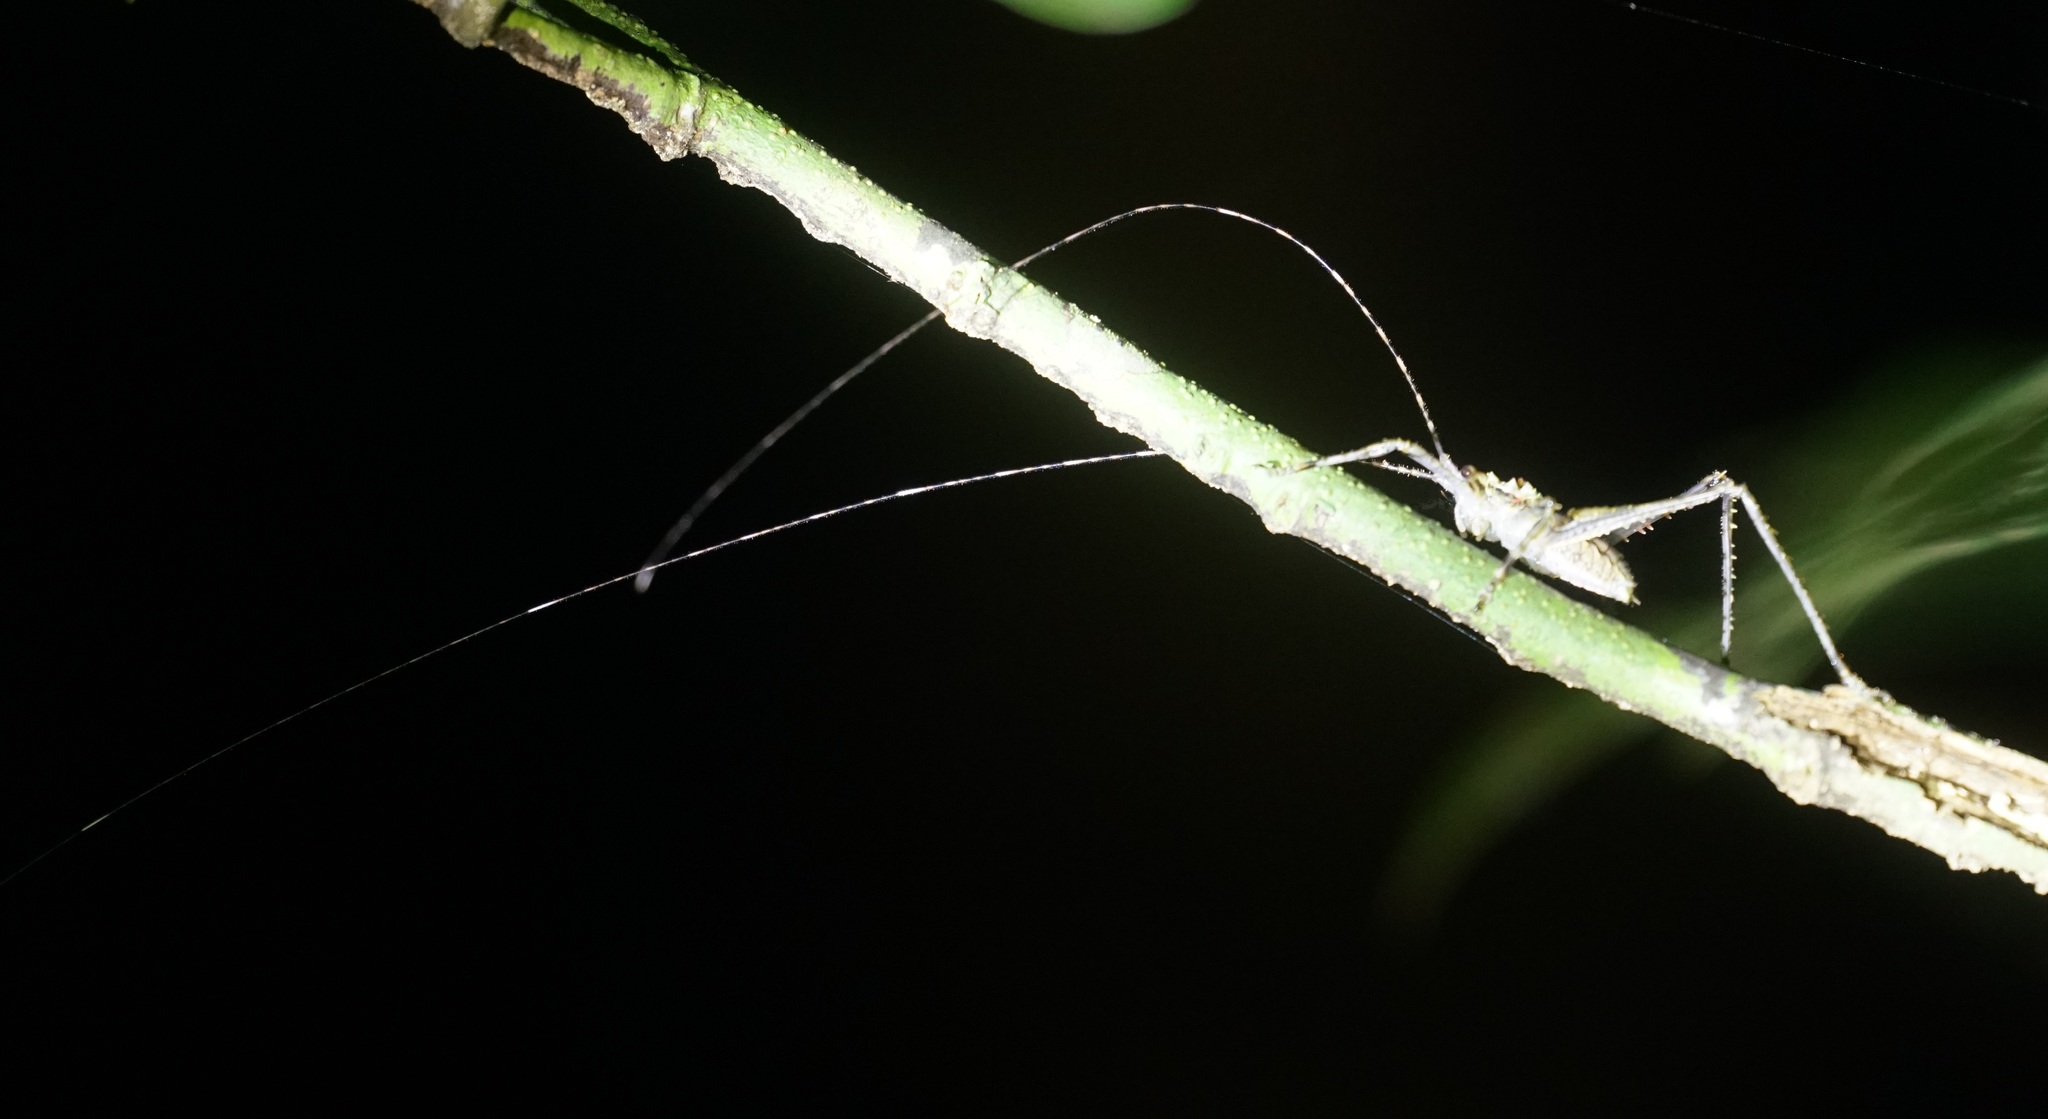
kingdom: Animalia
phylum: Arthropoda
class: Insecta
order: Orthoptera
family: Tettigoniidae
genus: Phricta
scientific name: Phricta spinosa
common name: Giant spiny forest katydid
